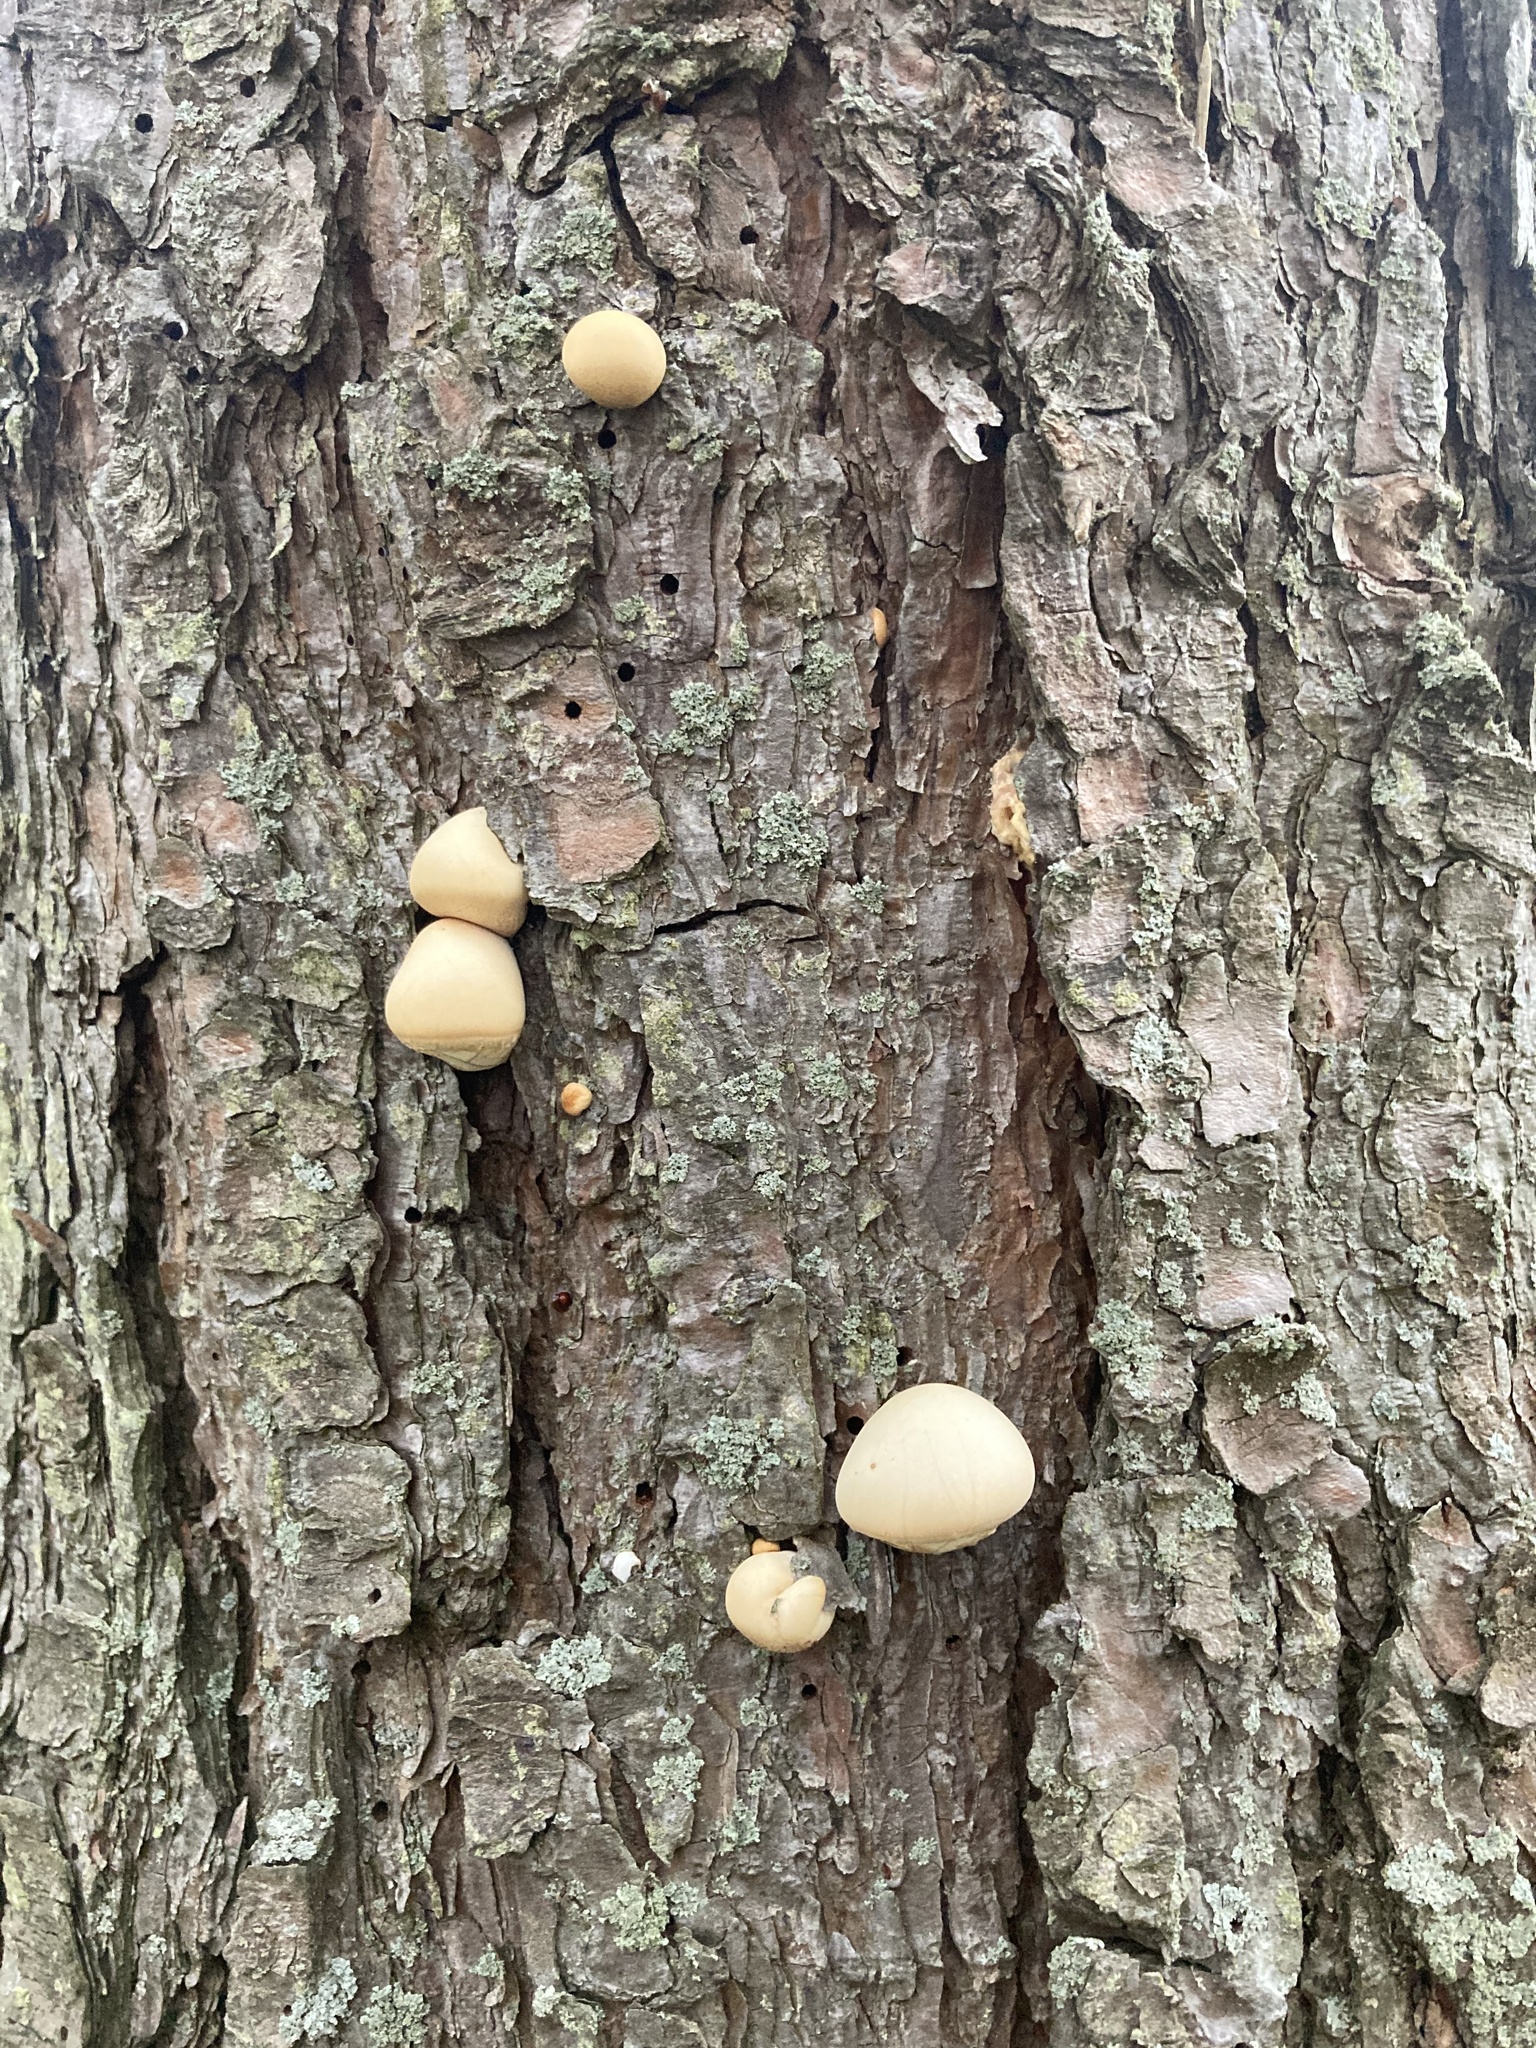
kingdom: Fungi
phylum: Basidiomycota
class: Agaricomycetes
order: Polyporales
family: Polyporaceae
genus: Cryptoporus
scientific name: Cryptoporus volvatus
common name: Veiled polypore
